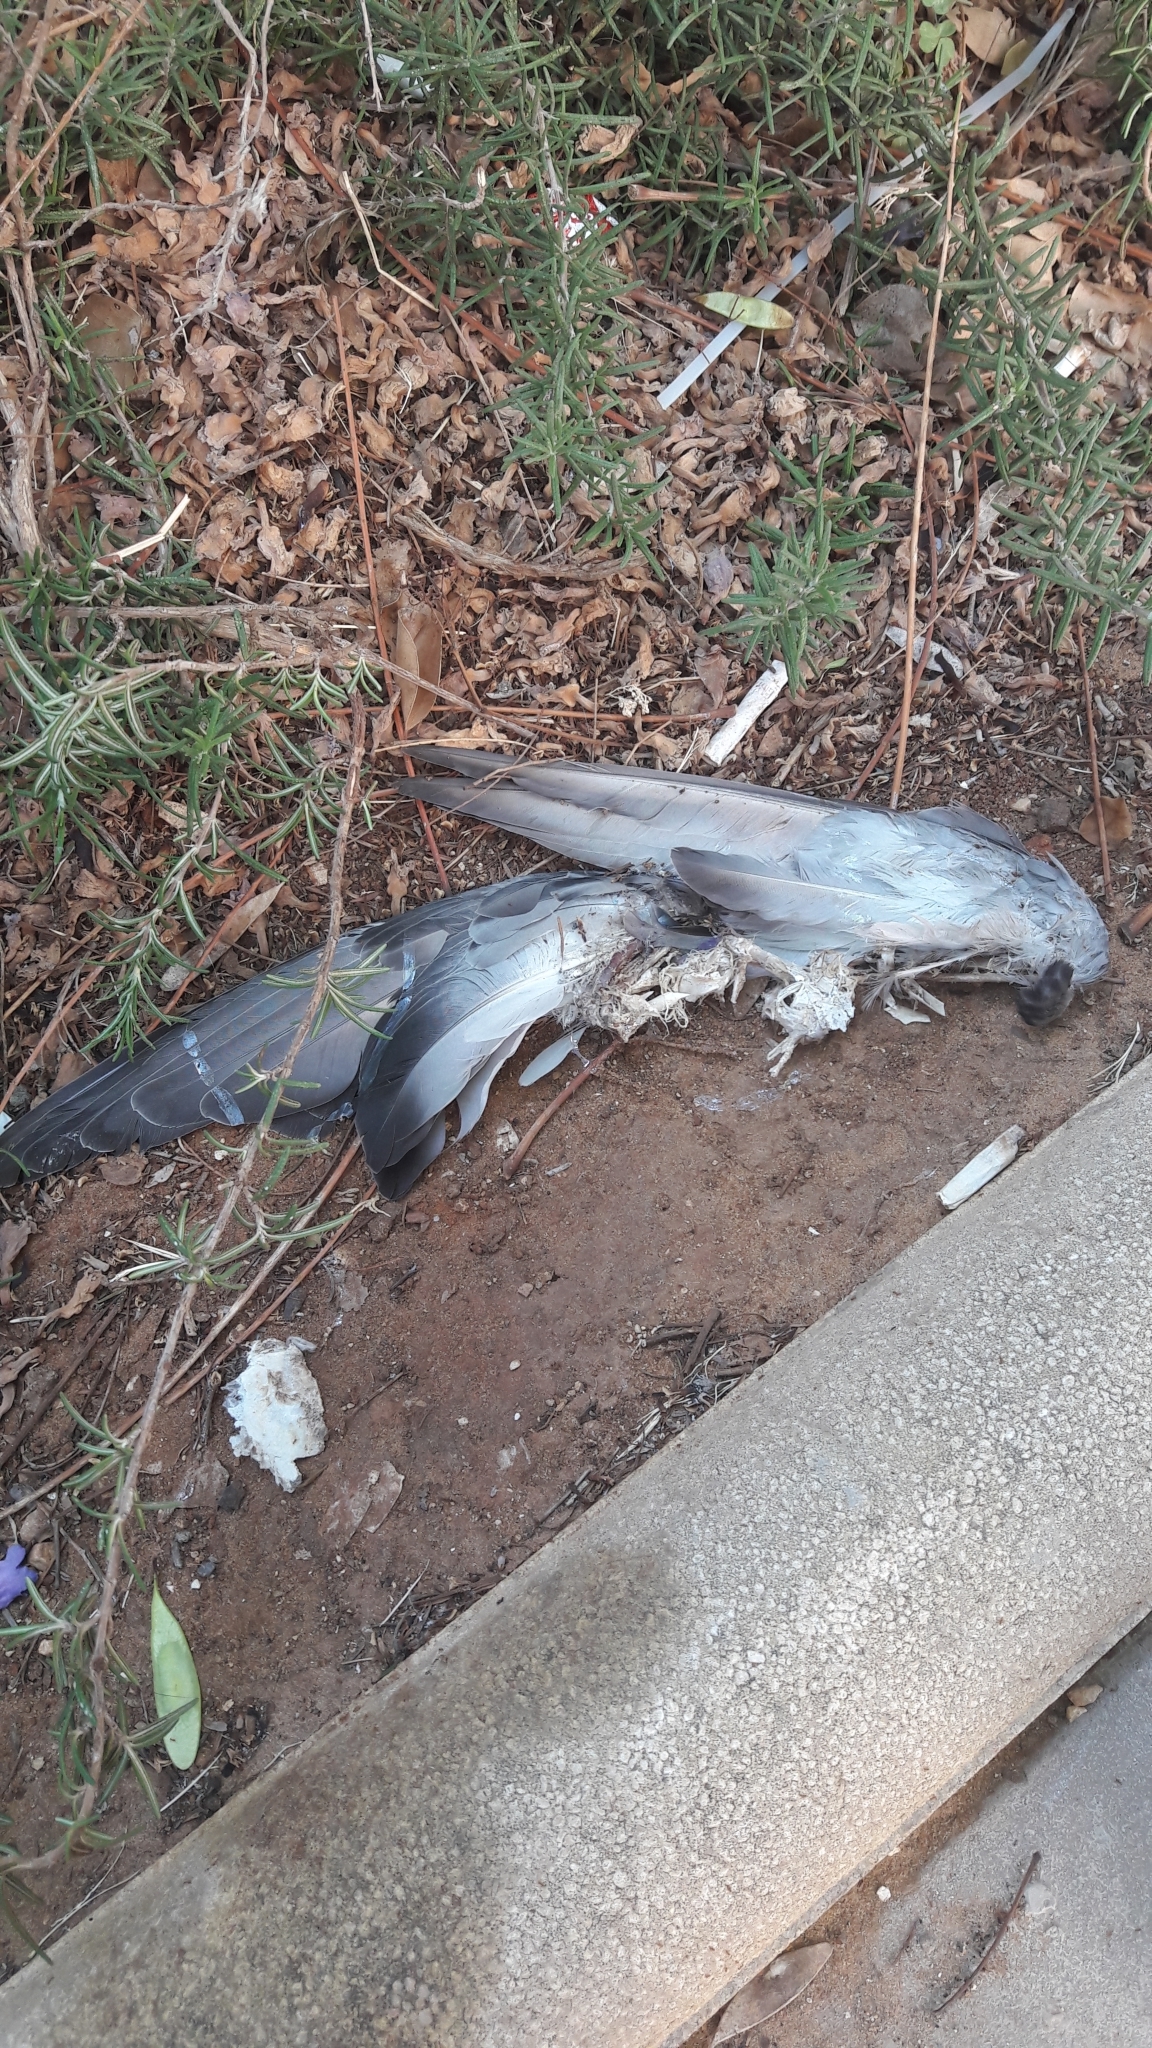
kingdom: Animalia
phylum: Chordata
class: Aves
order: Columbiformes
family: Columbidae
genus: Columba
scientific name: Columba livia
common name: Rock pigeon
